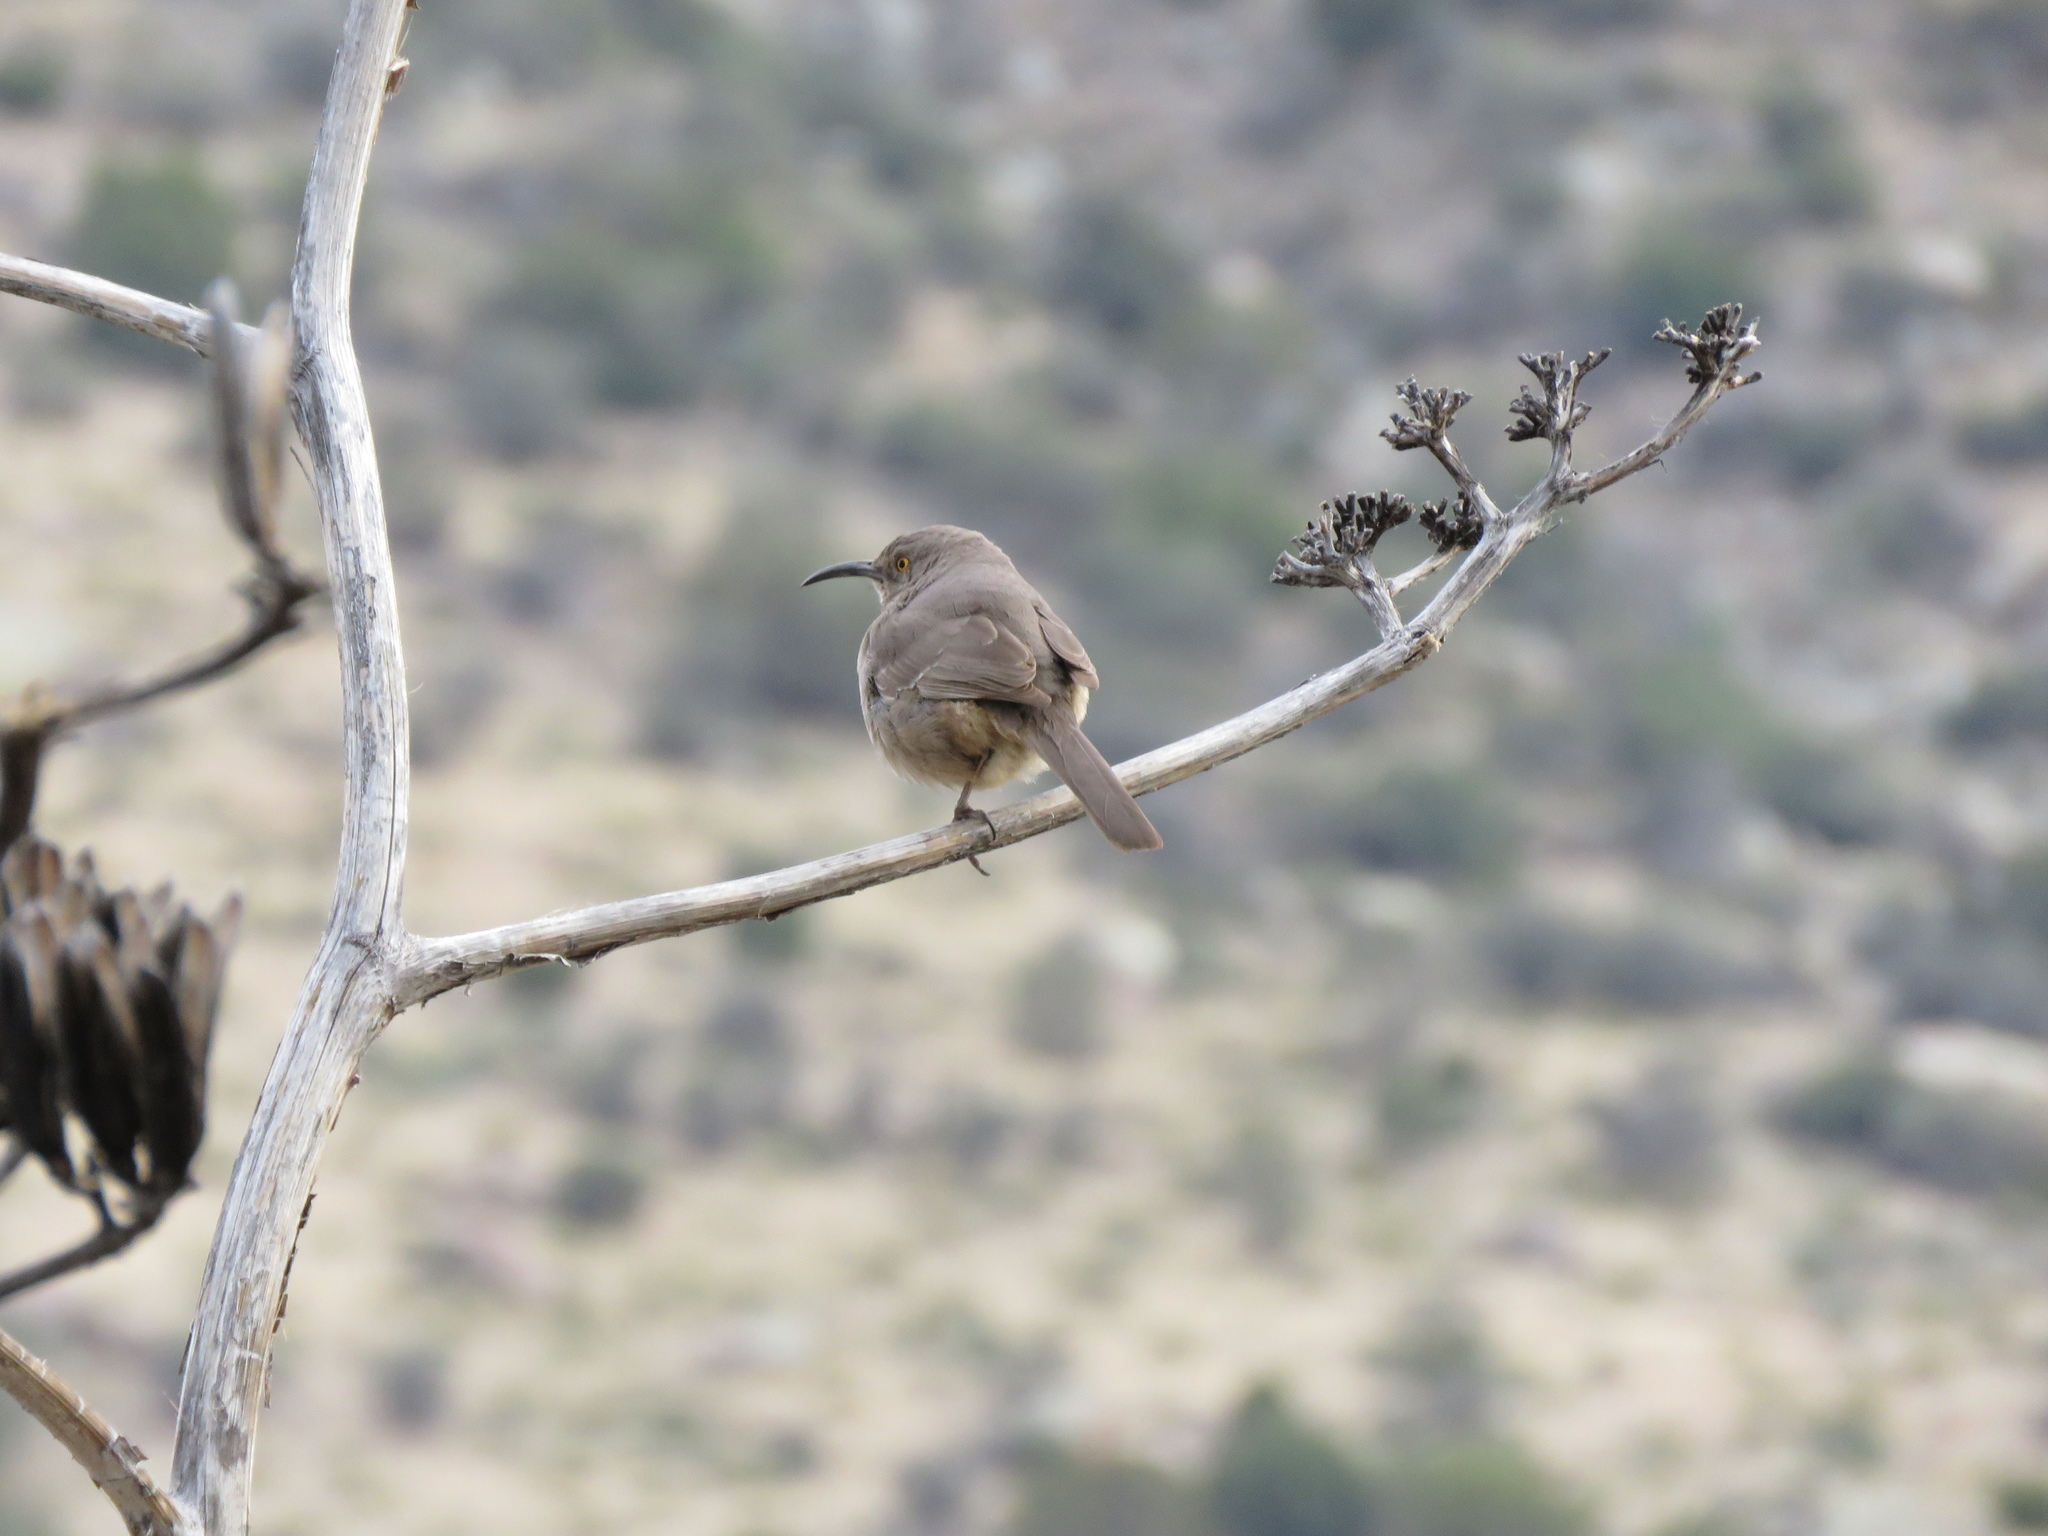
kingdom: Animalia
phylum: Chordata
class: Aves
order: Passeriformes
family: Mimidae
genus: Toxostoma
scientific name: Toxostoma curvirostre
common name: Curve-billed thrasher
